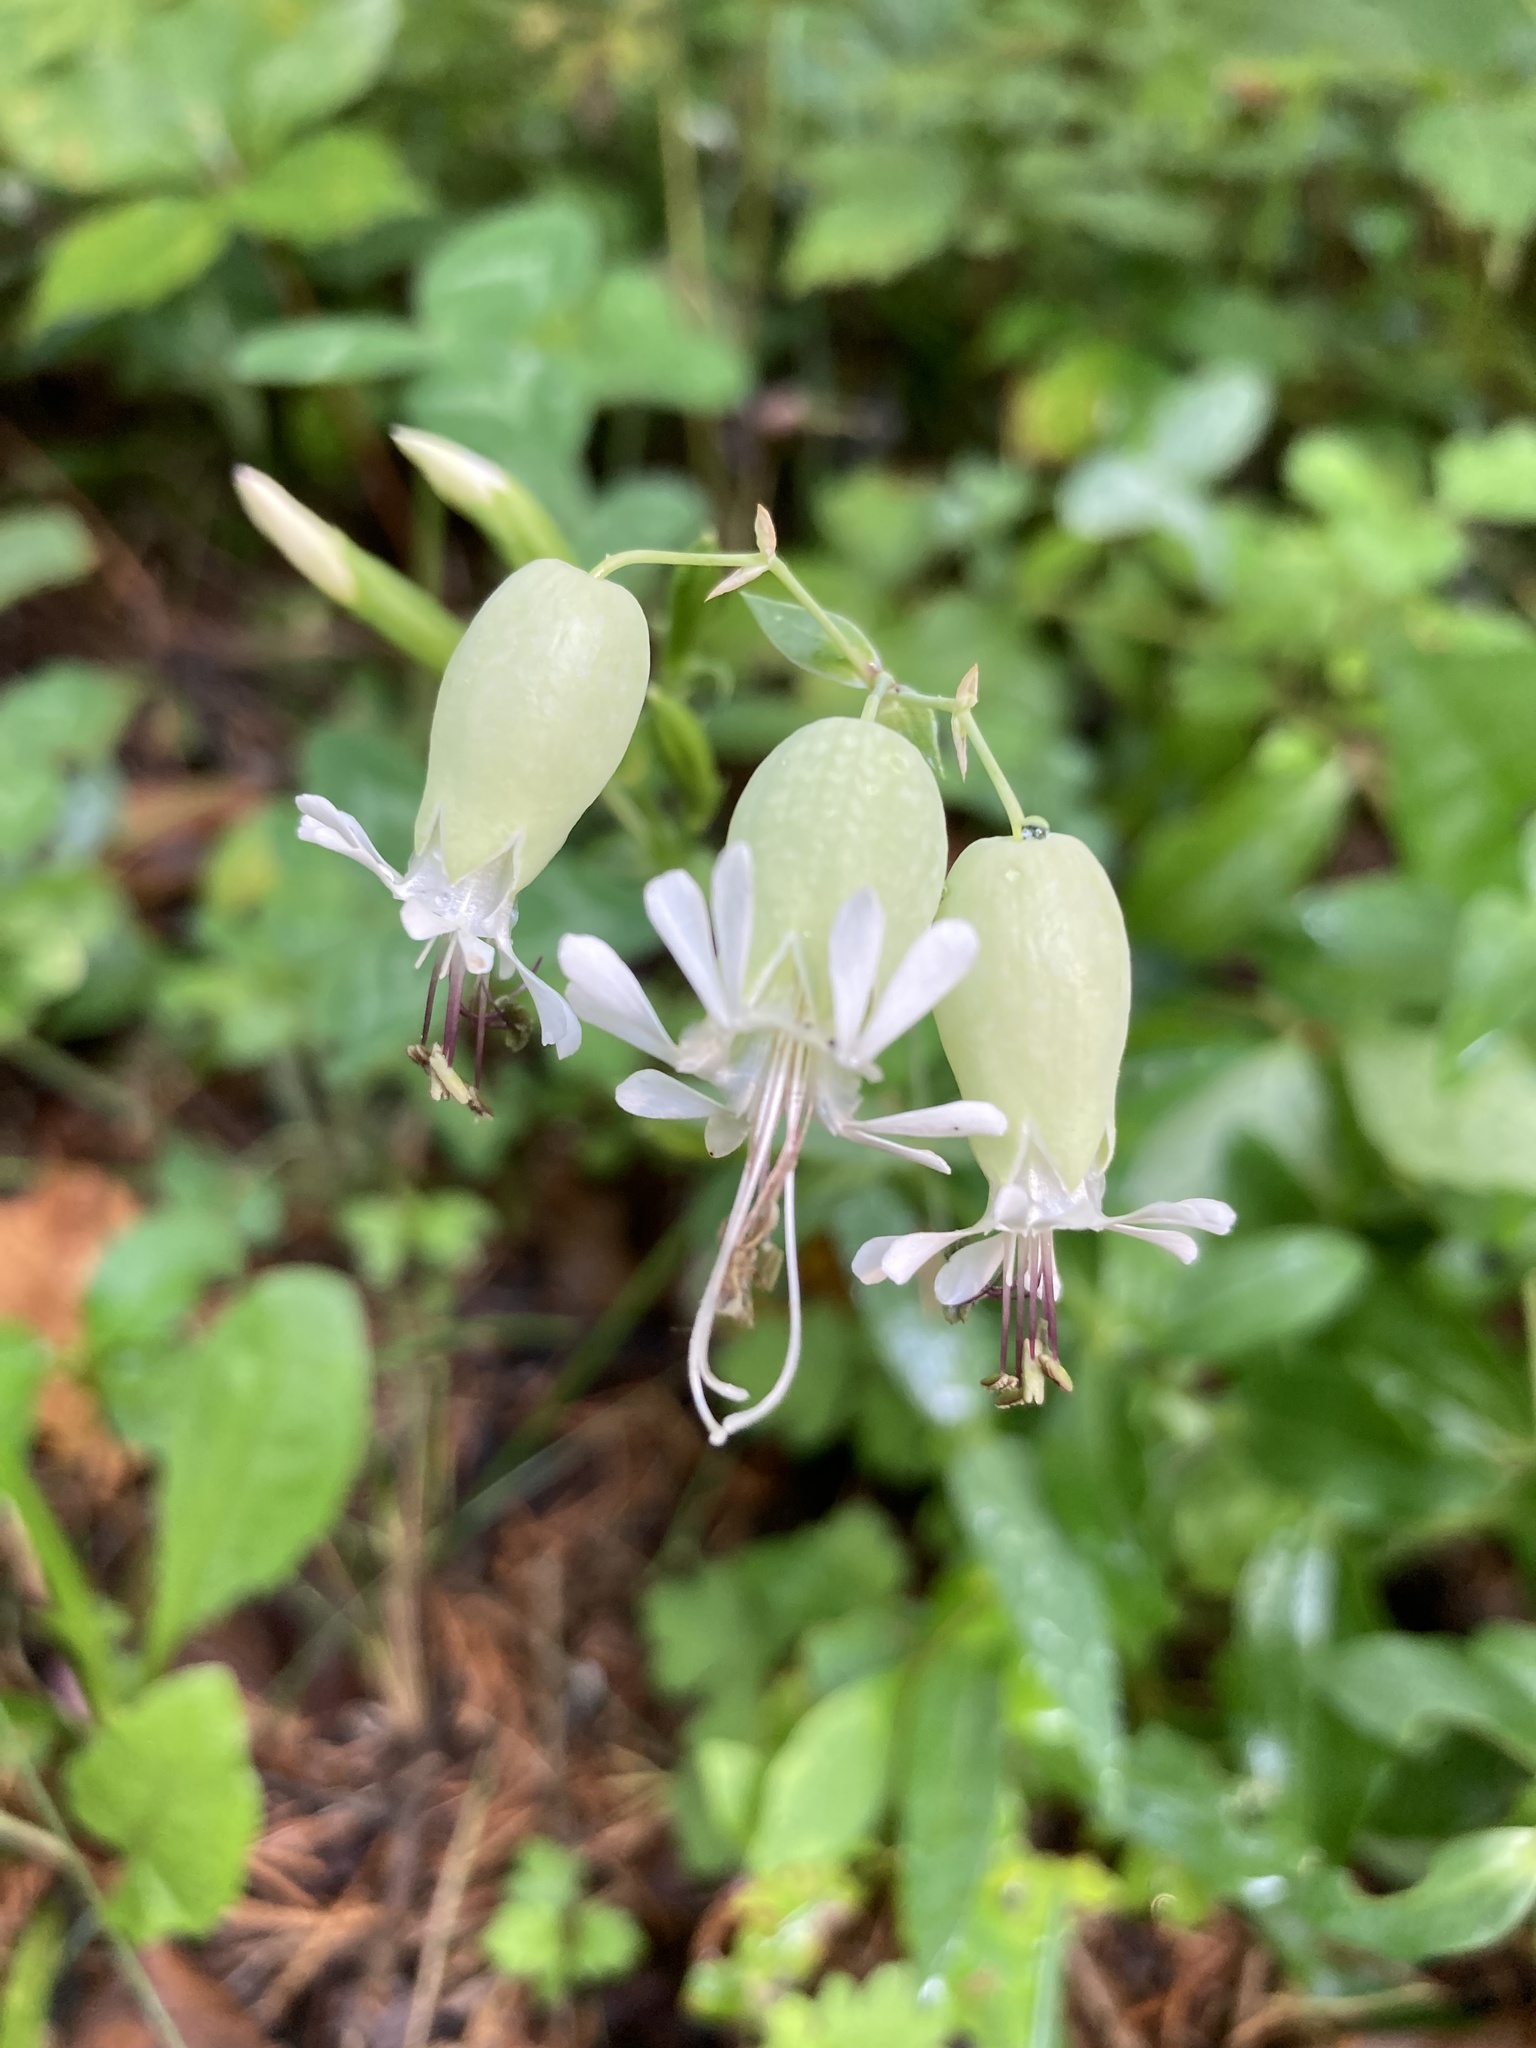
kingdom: Plantae
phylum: Tracheophyta
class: Magnoliopsida
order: Caryophyllales
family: Caryophyllaceae
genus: Silene
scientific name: Silene vulgaris
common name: Bladder campion
